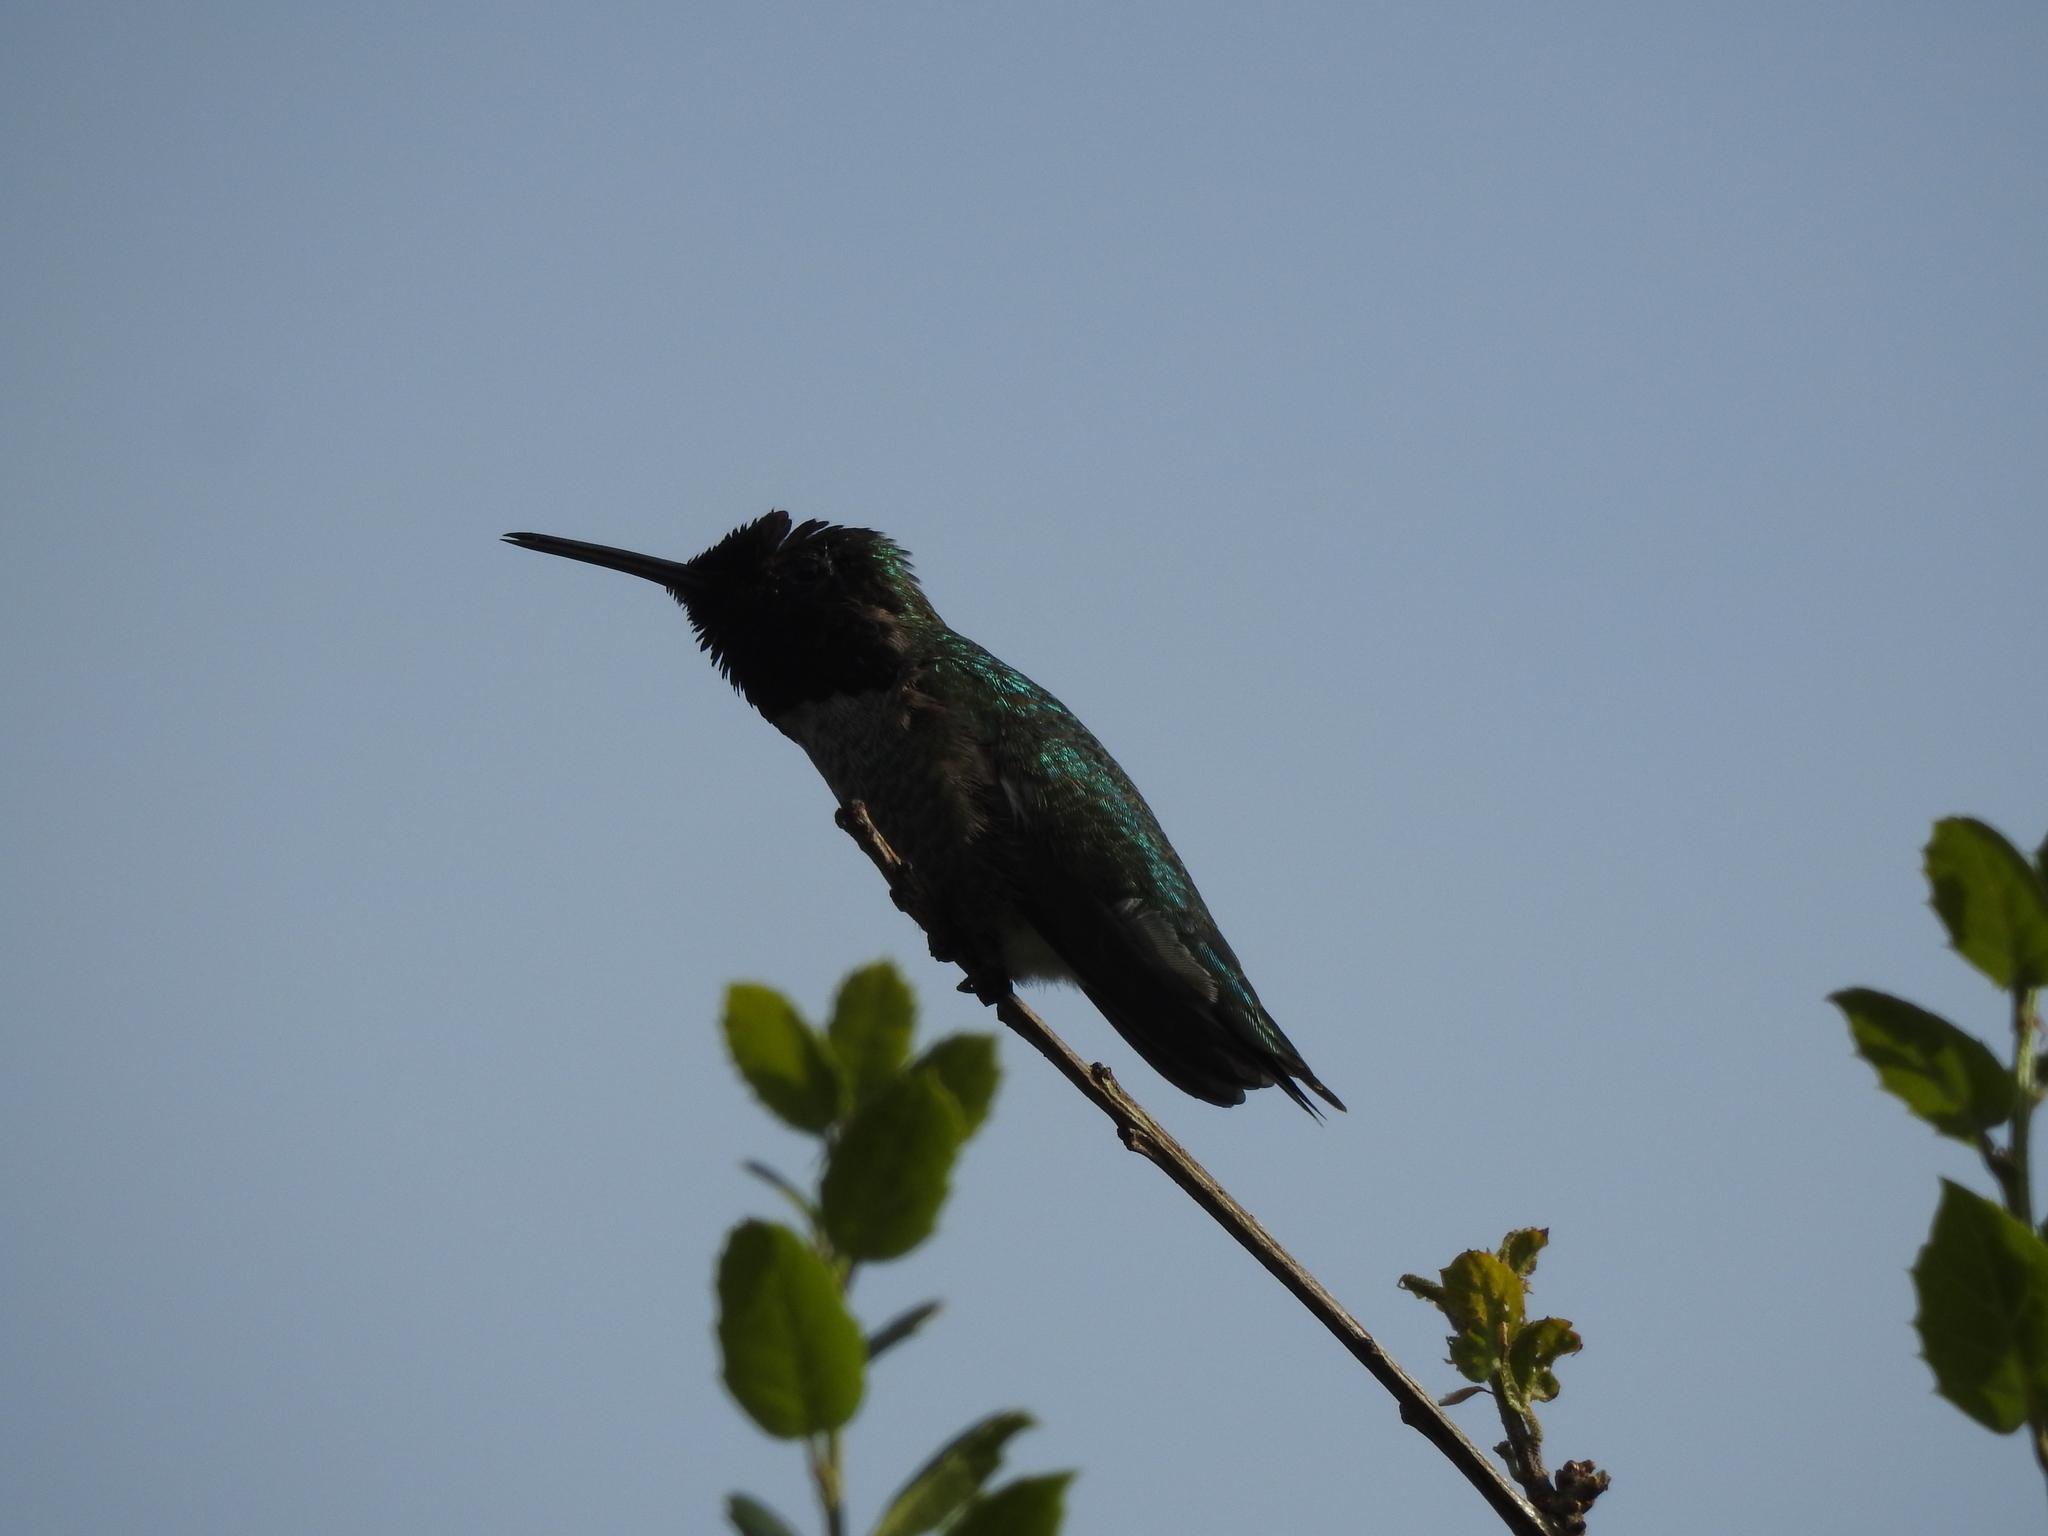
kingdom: Animalia
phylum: Chordata
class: Aves
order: Apodiformes
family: Trochilidae
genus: Calypte
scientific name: Calypte anna
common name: Anna's hummingbird
